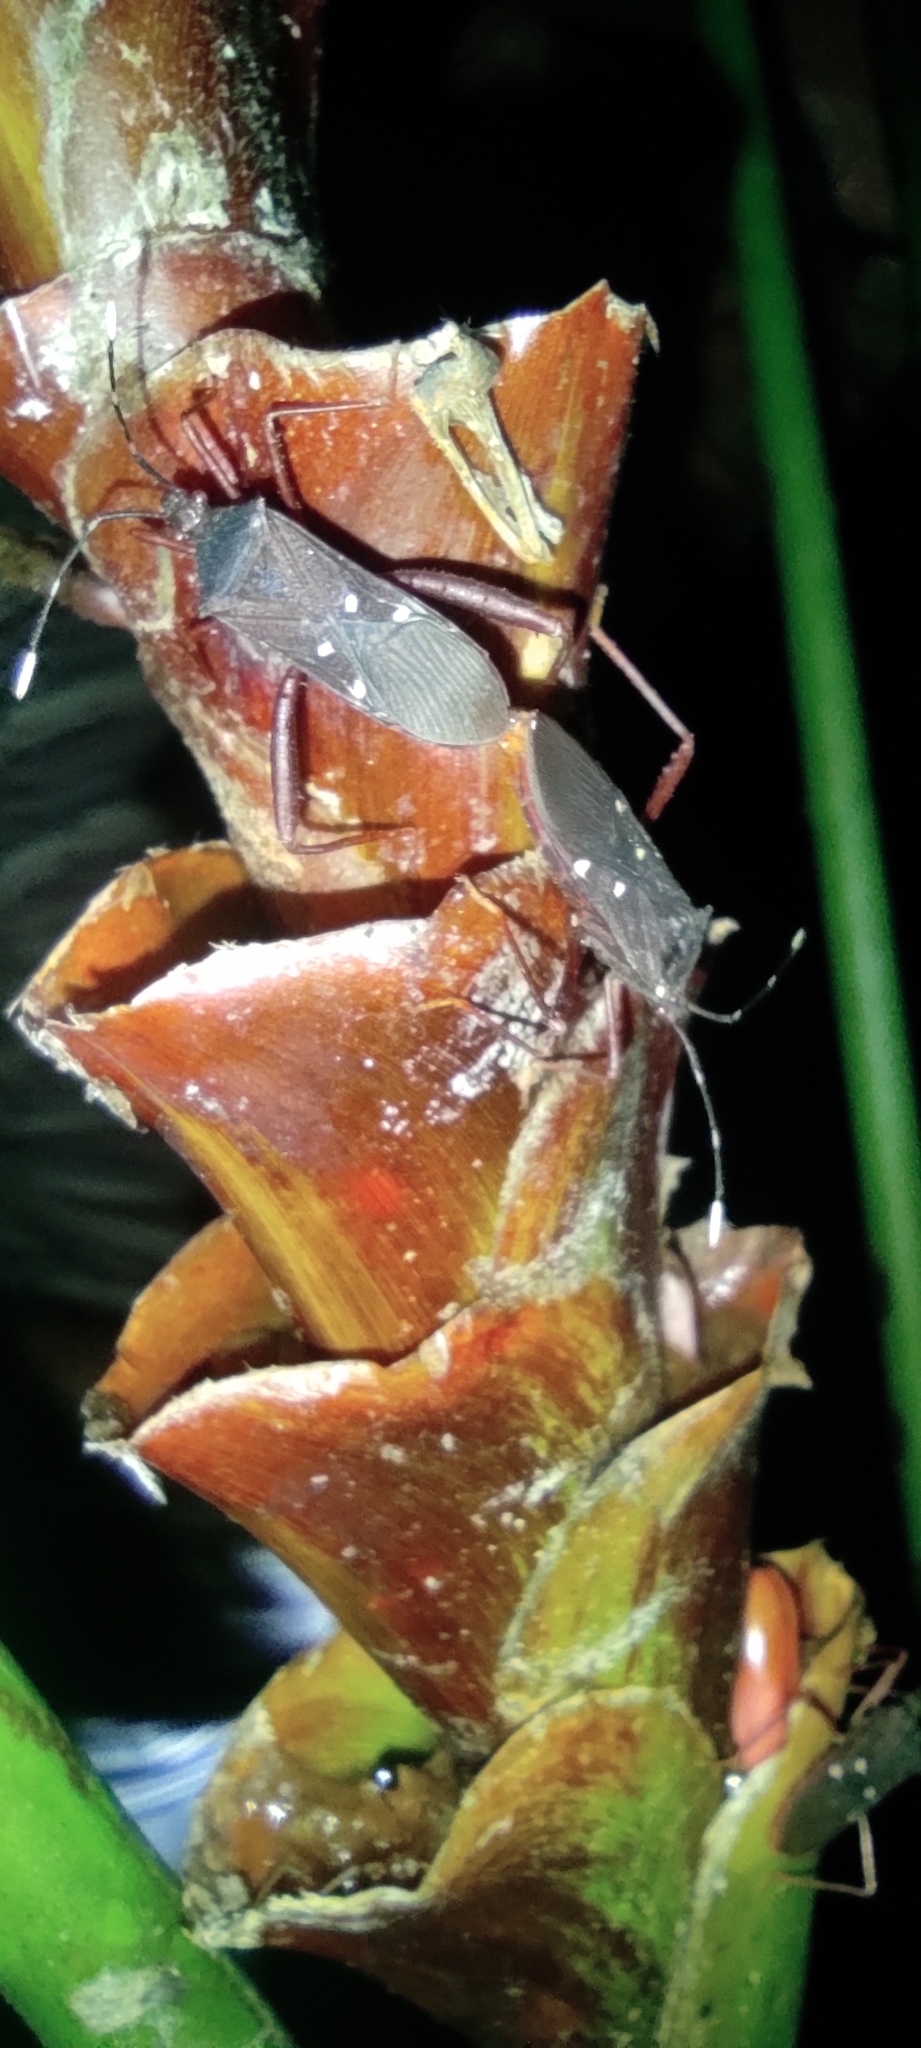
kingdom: Animalia
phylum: Arthropoda
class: Insecta
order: Hemiptera
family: Coreidae
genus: Leptoscelis
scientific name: Leptoscelis quadrisignatus
